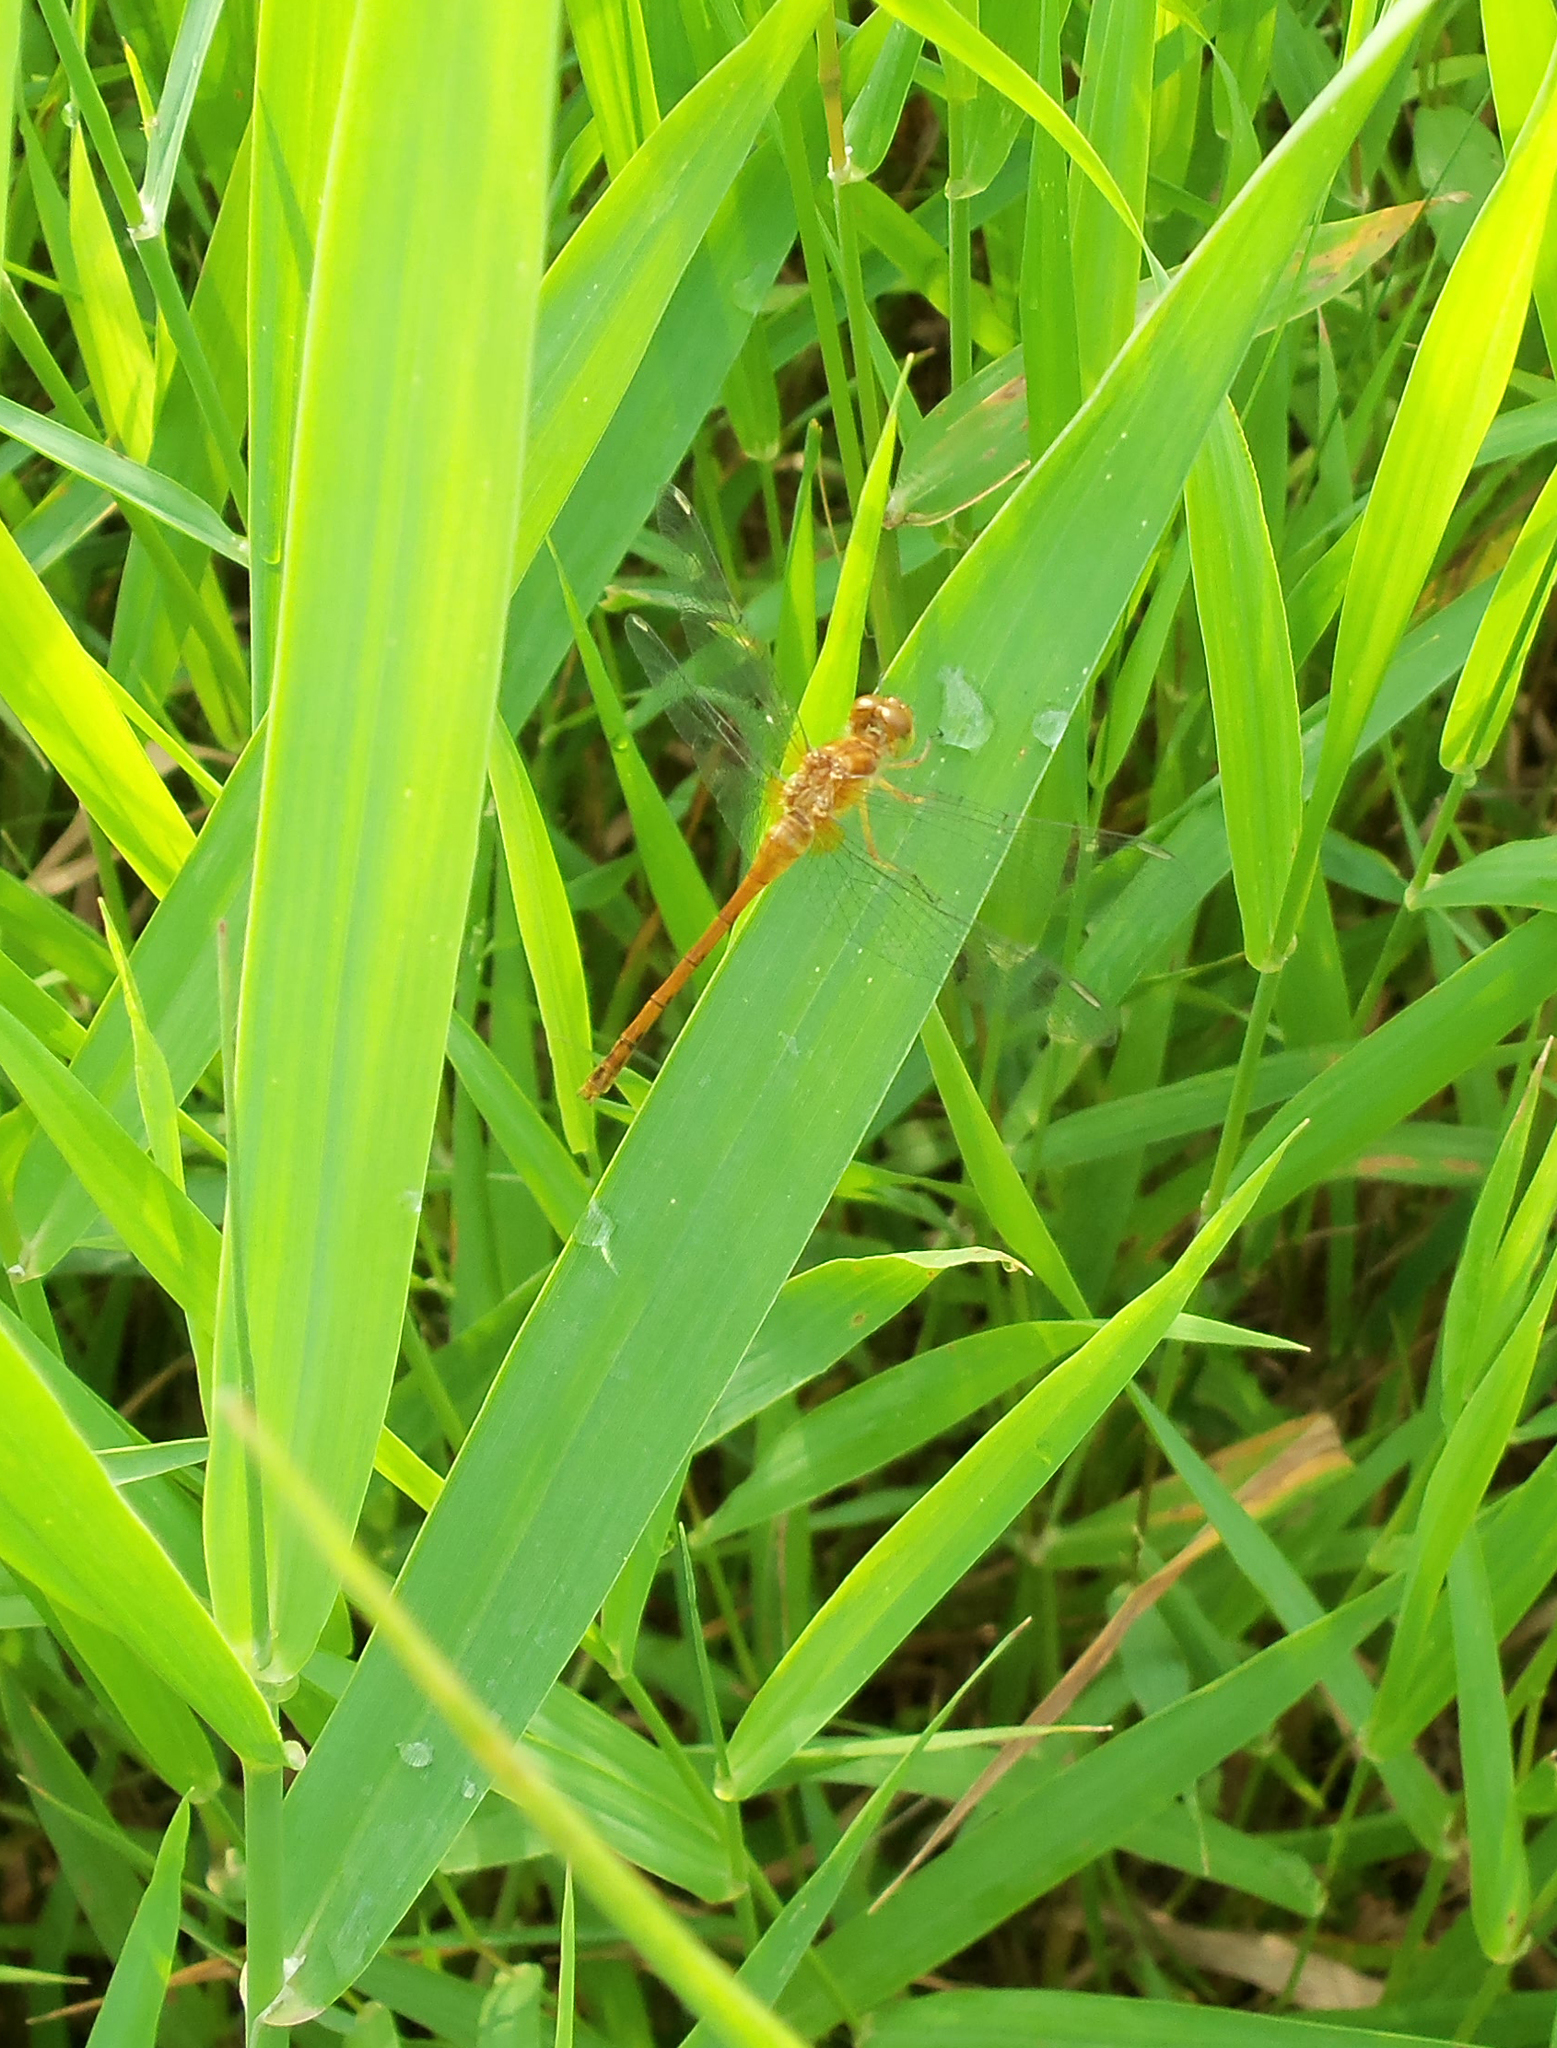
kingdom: Animalia
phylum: Arthropoda
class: Insecta
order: Odonata
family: Libellulidae
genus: Sympetrum
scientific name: Sympetrum vicinum
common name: Autumn meadowhawk
